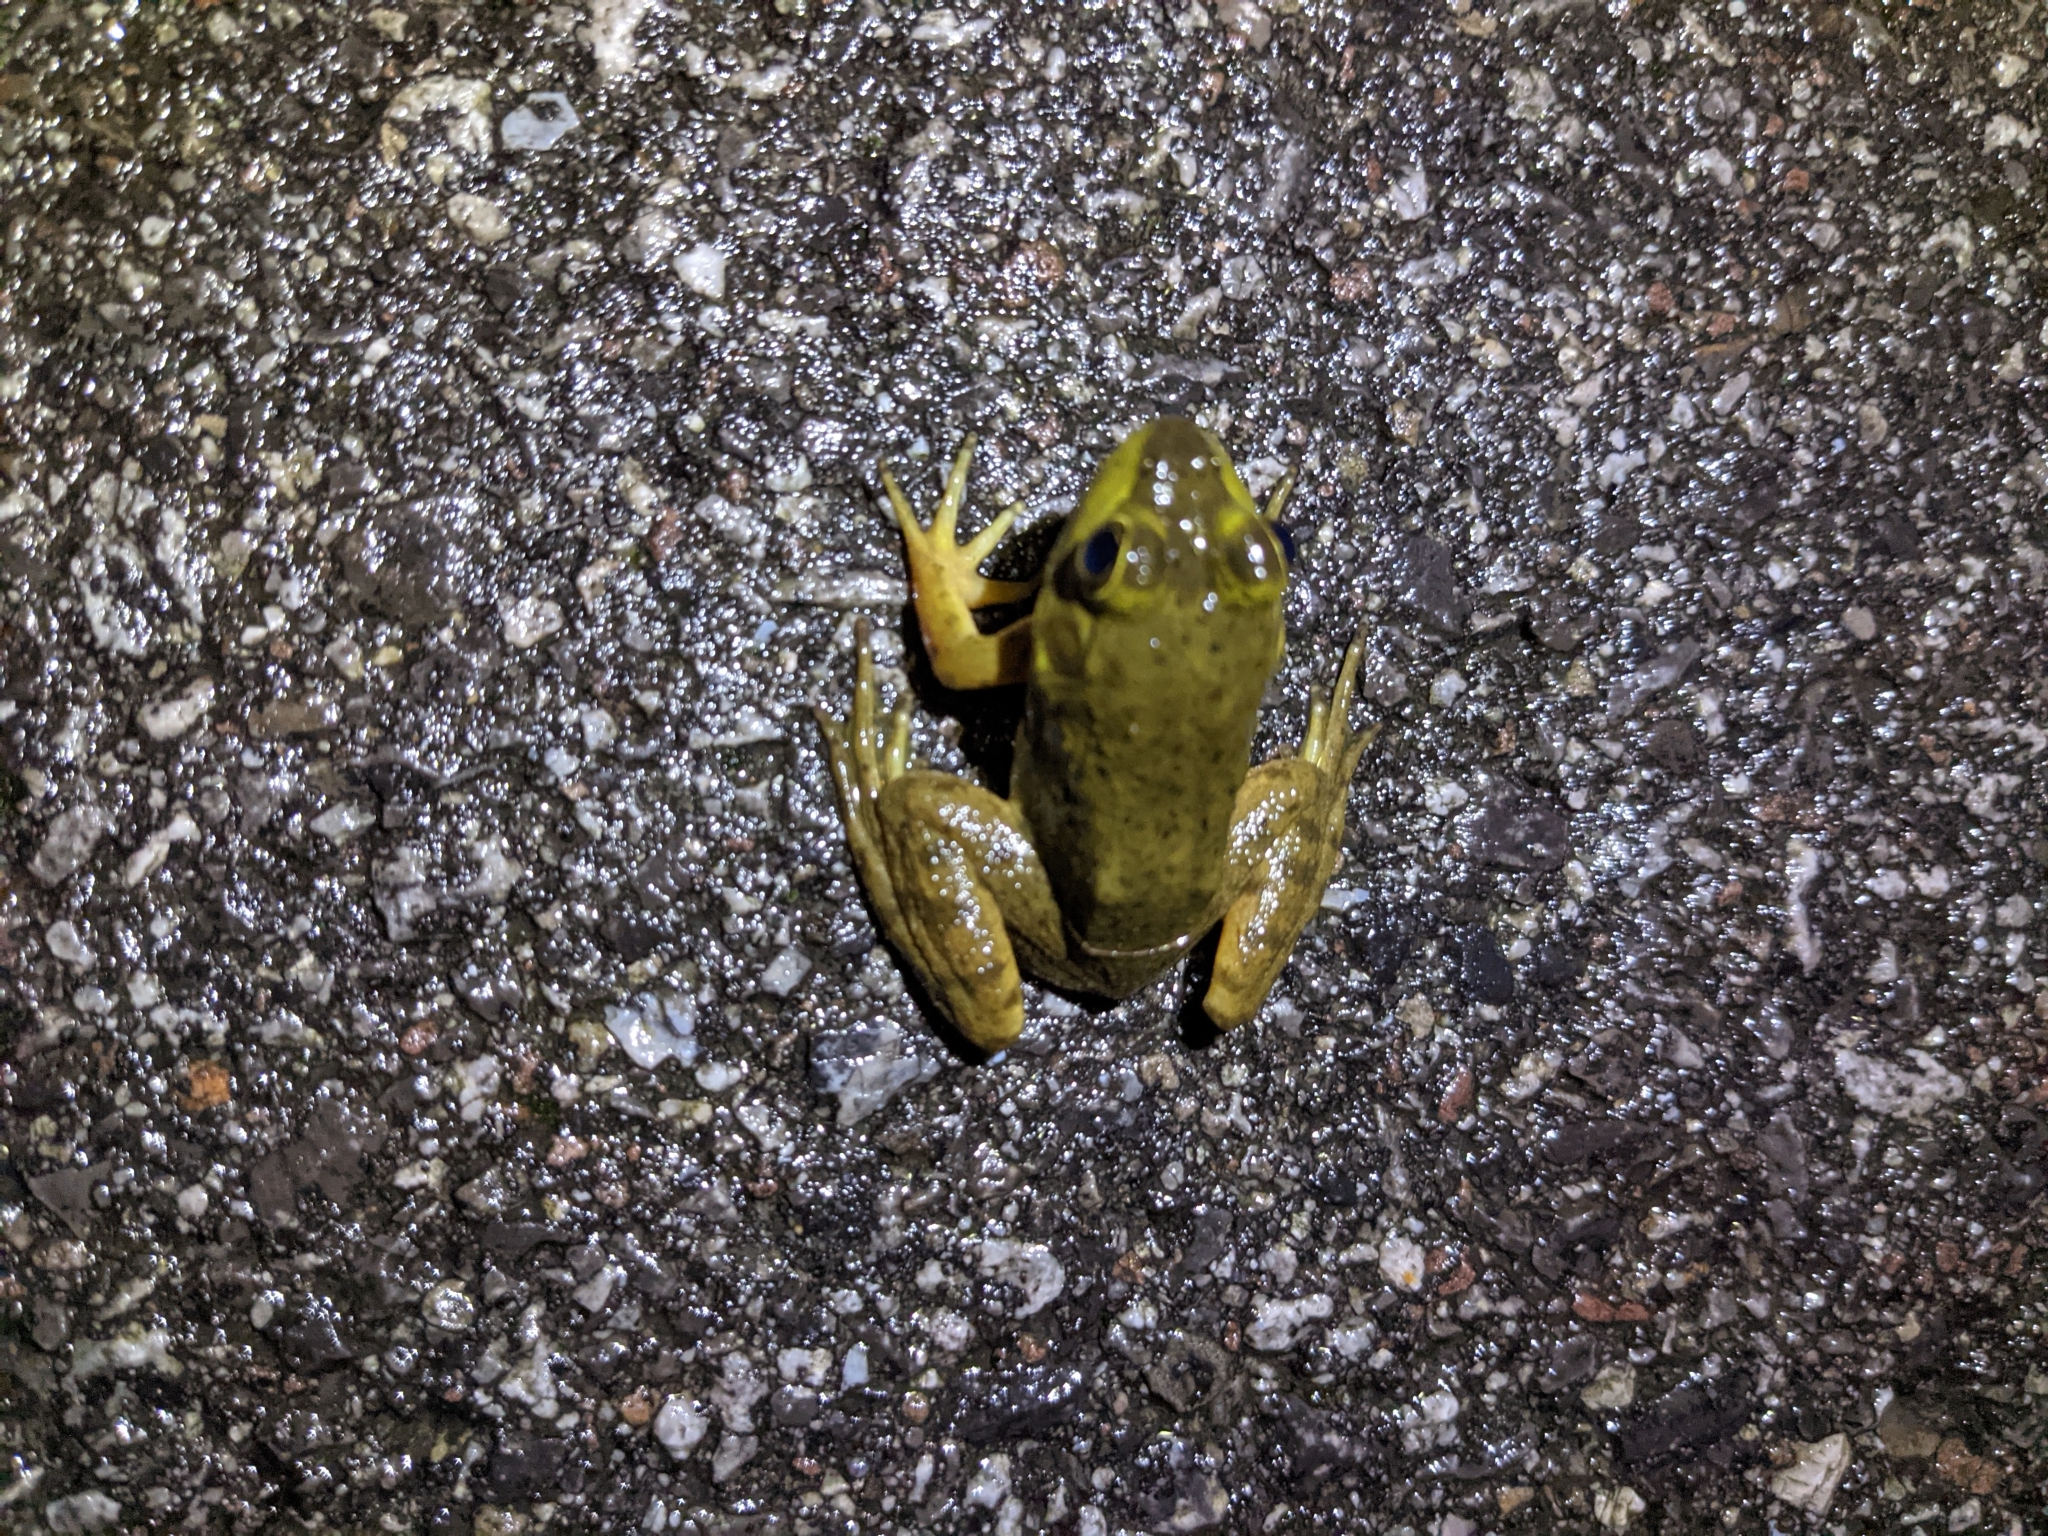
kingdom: Animalia
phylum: Chordata
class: Amphibia
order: Anura
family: Ranidae
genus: Lithobates
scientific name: Lithobates catesbeianus
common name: American bullfrog
